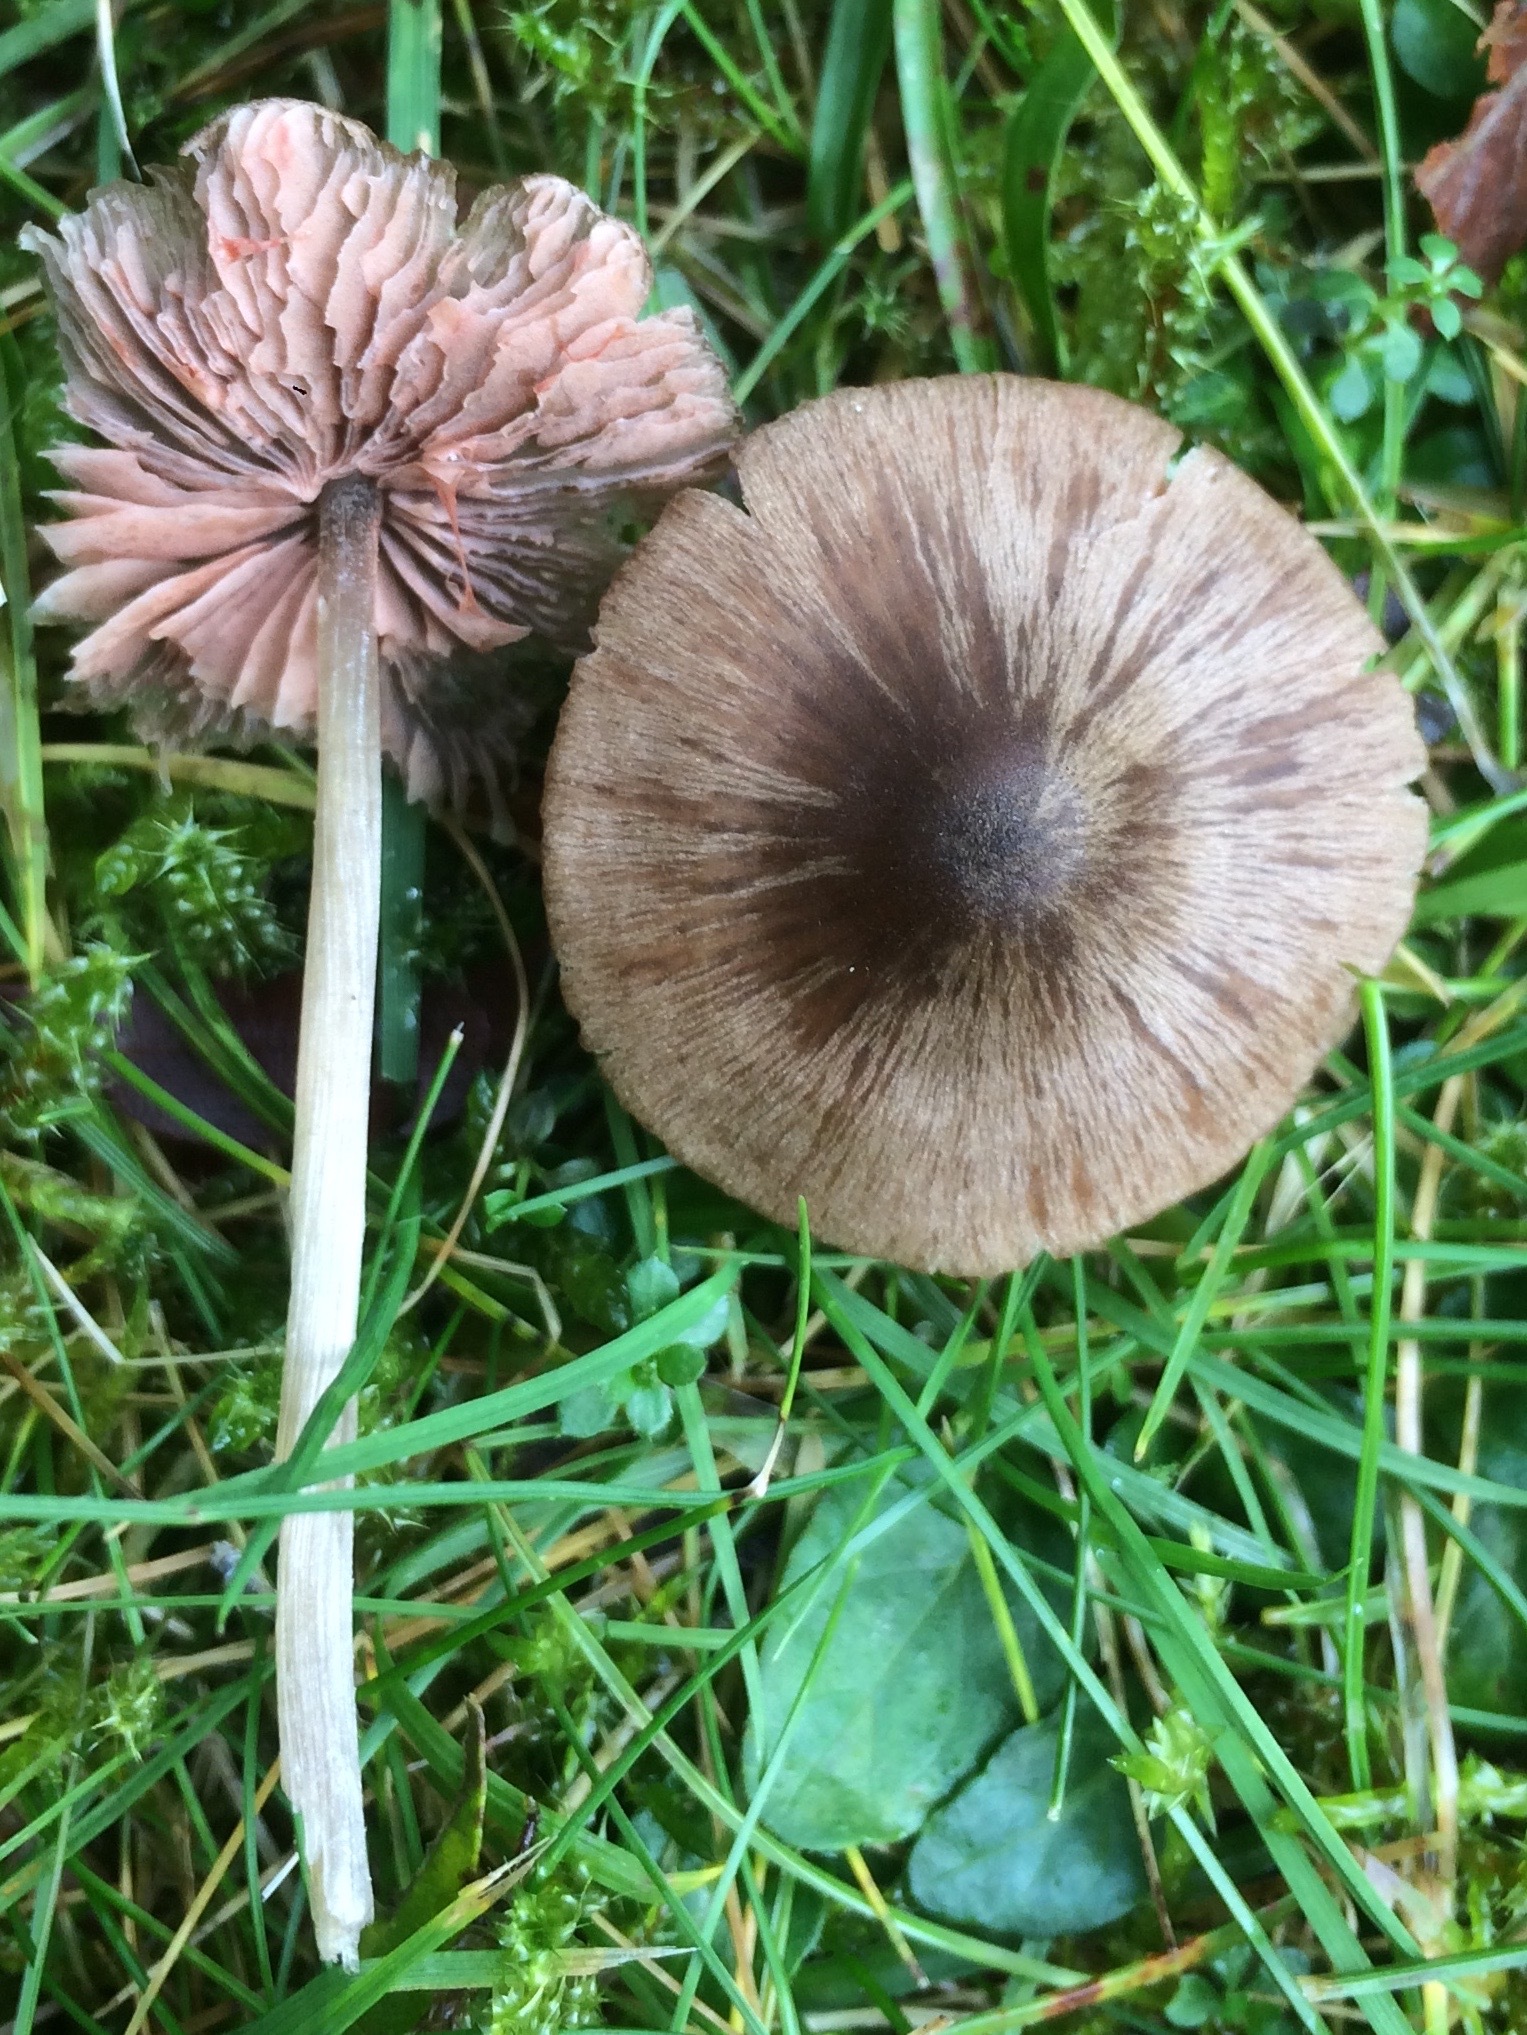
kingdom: Fungi
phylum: Basidiomycota
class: Agaricomycetes
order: Agaricales
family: Entolomataceae
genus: Entoloma
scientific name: Entoloma conferendum
